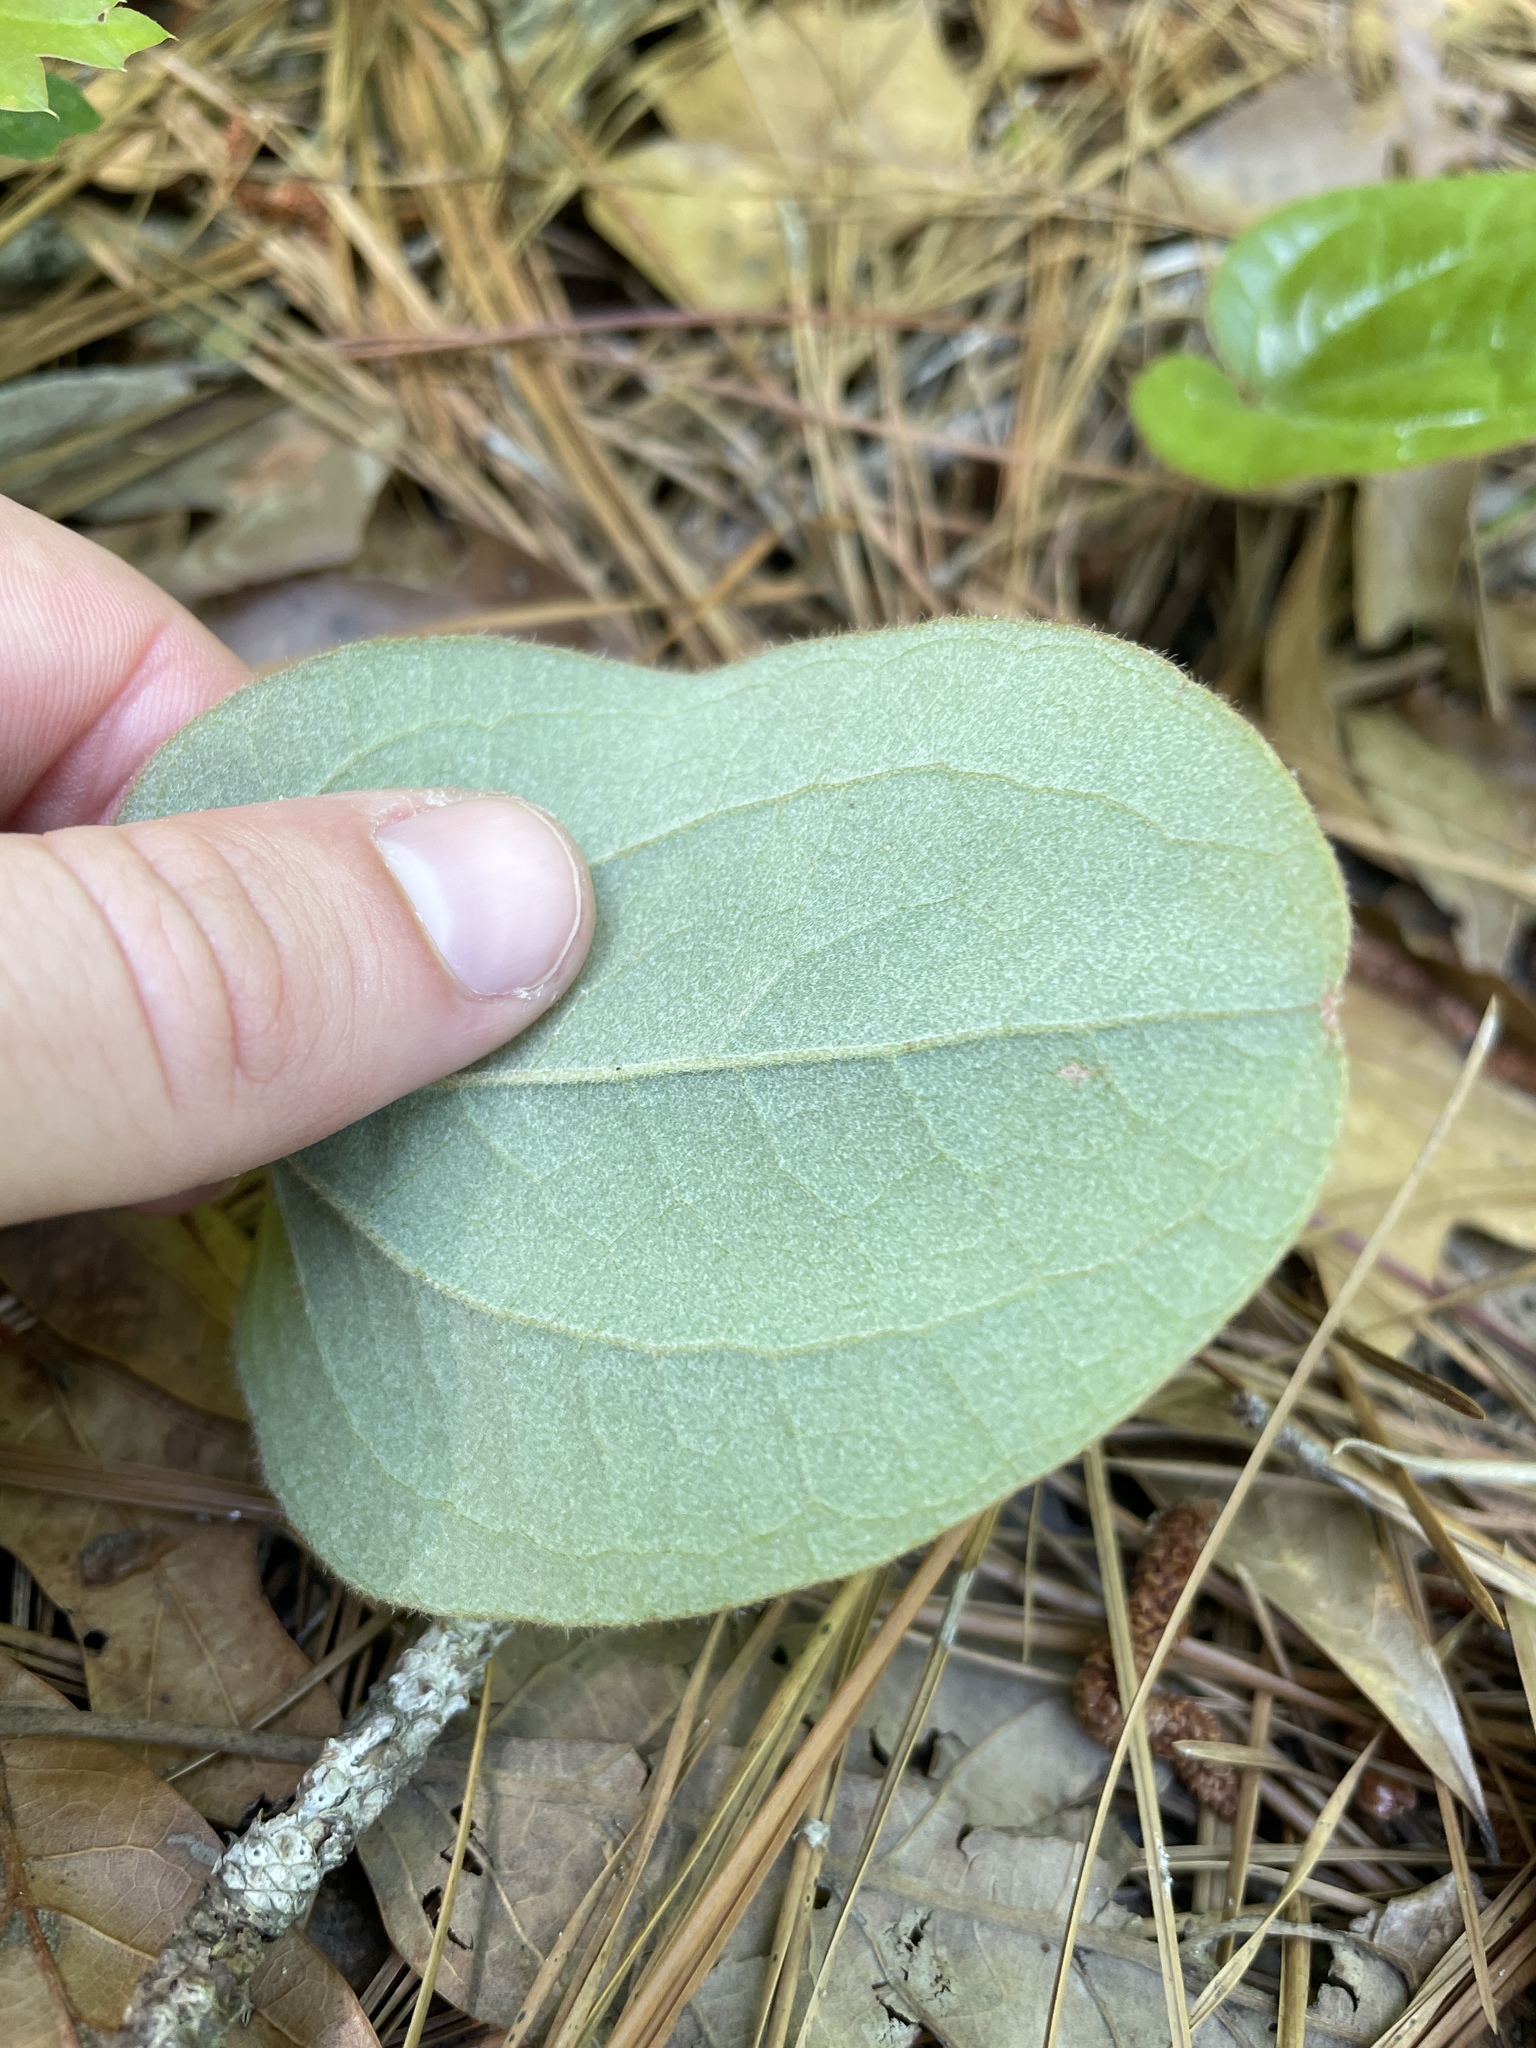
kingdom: Plantae
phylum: Tracheophyta
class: Liliopsida
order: Liliales
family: Smilacaceae
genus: Smilax
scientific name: Smilax pumila
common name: Sarsaparilla-vine
